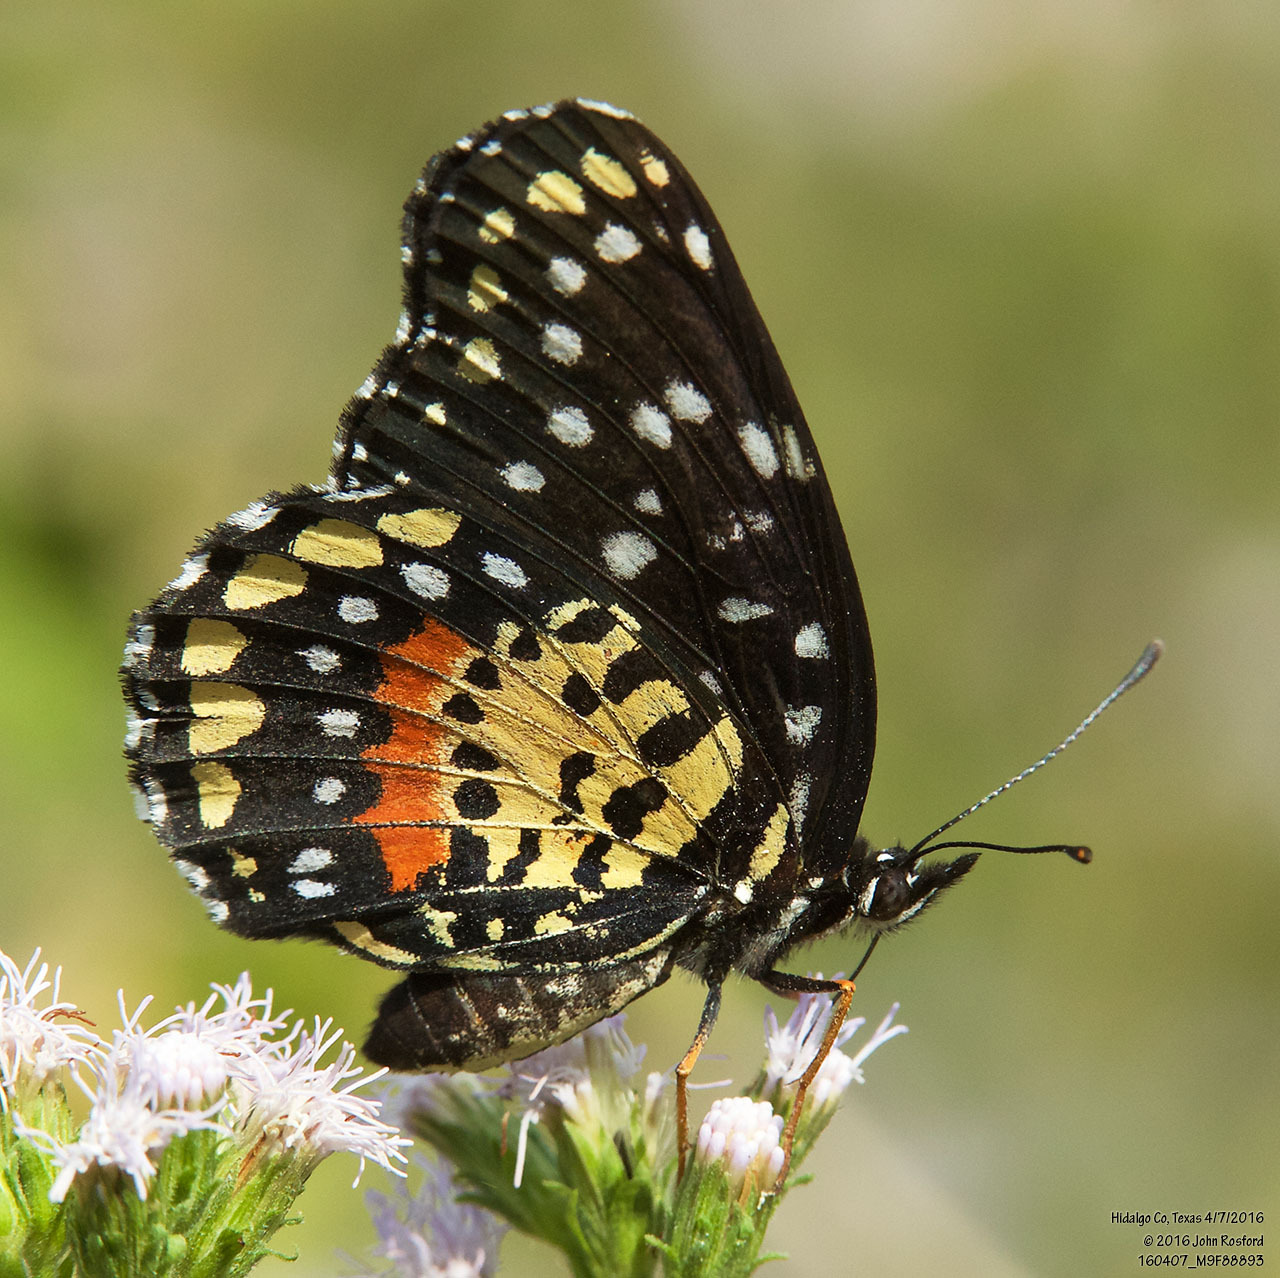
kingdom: Animalia
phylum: Arthropoda
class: Insecta
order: Lepidoptera
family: Nymphalidae
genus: Chlosyne
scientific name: Chlosyne janais
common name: Crimson patch
